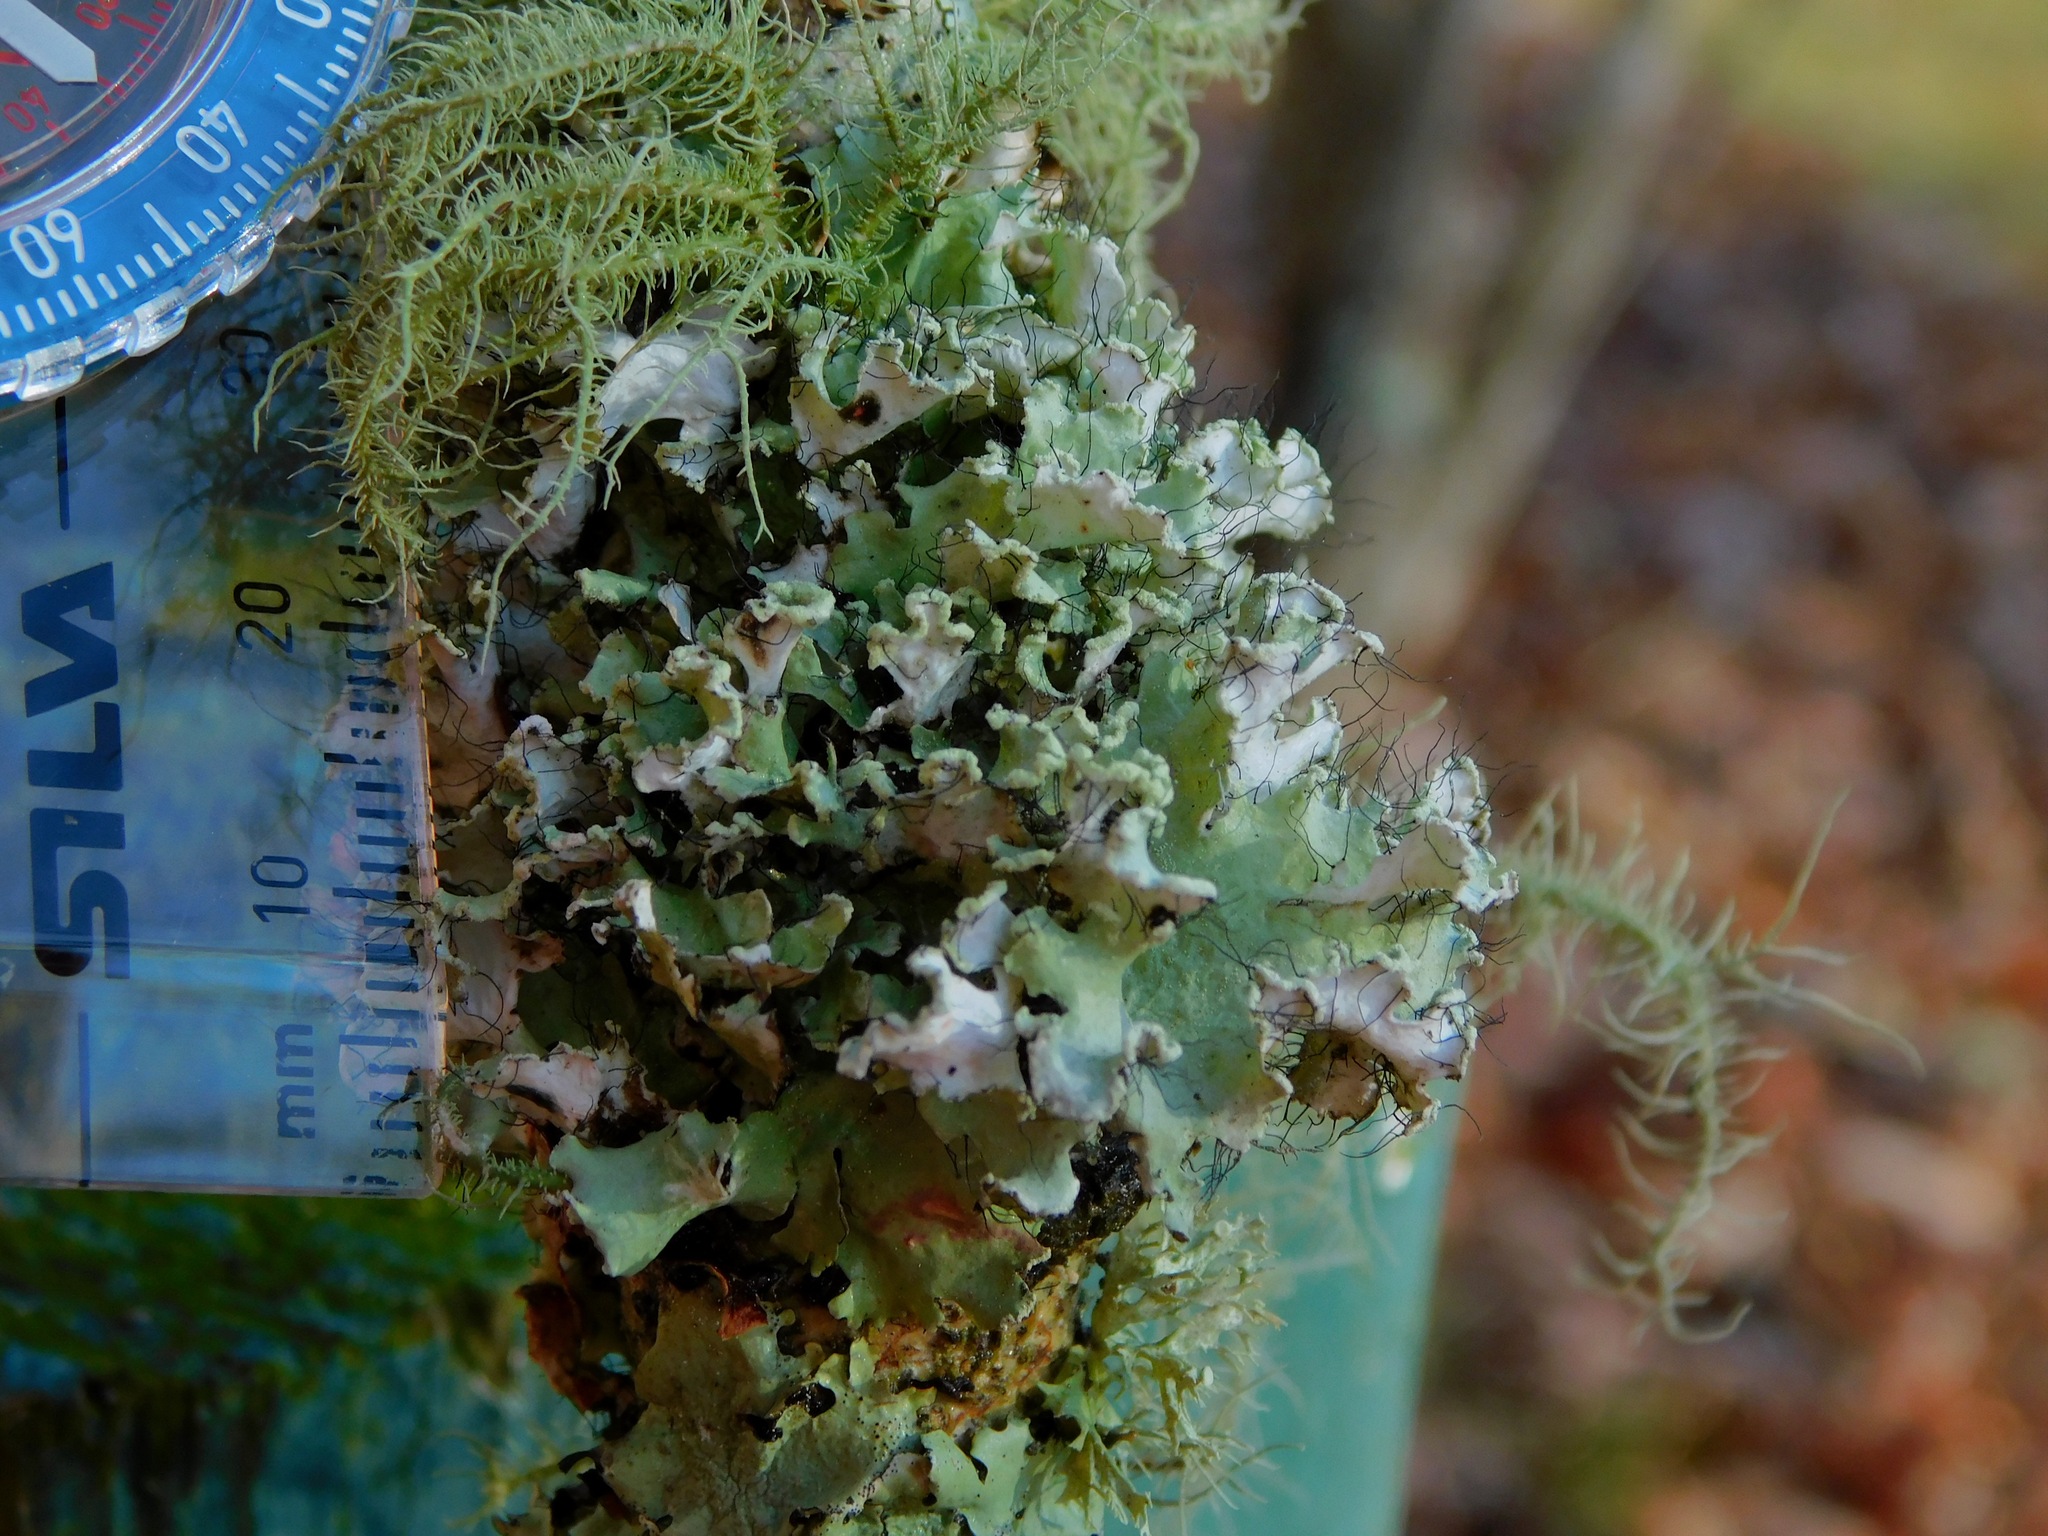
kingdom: Fungi
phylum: Ascomycota
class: Lecanoromycetes
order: Lecanorales
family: Parmeliaceae
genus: Parmotrema
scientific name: Parmotrema hypotropum
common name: Powdered ruffle lichen
